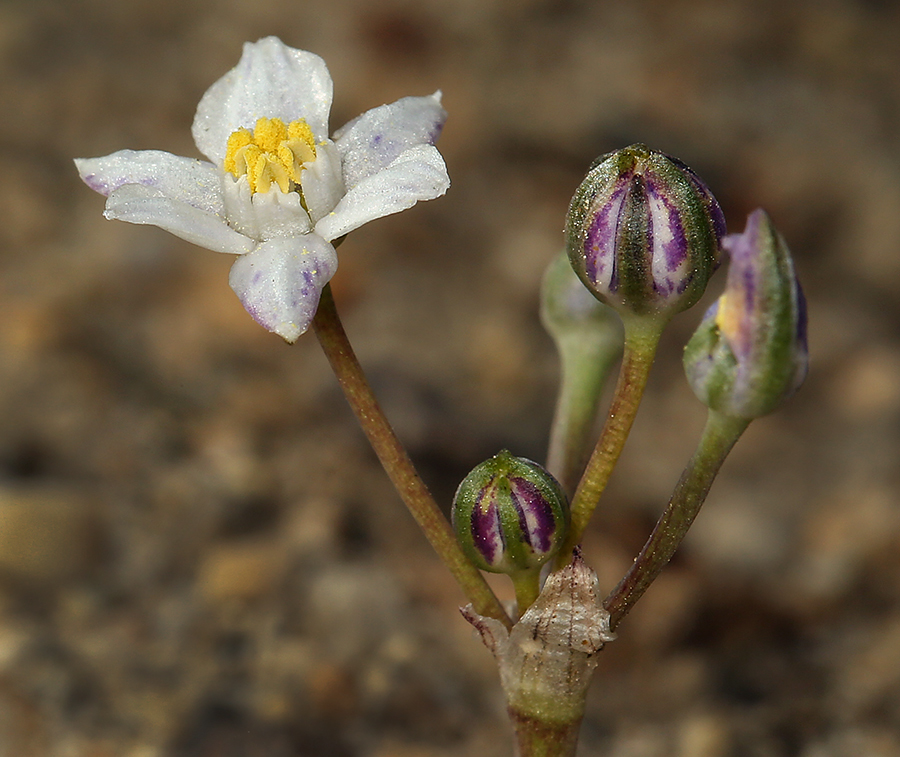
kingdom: Plantae
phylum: Tracheophyta
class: Liliopsida
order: Asparagales
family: Asparagaceae
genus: Muilla
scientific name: Muilla coronata
